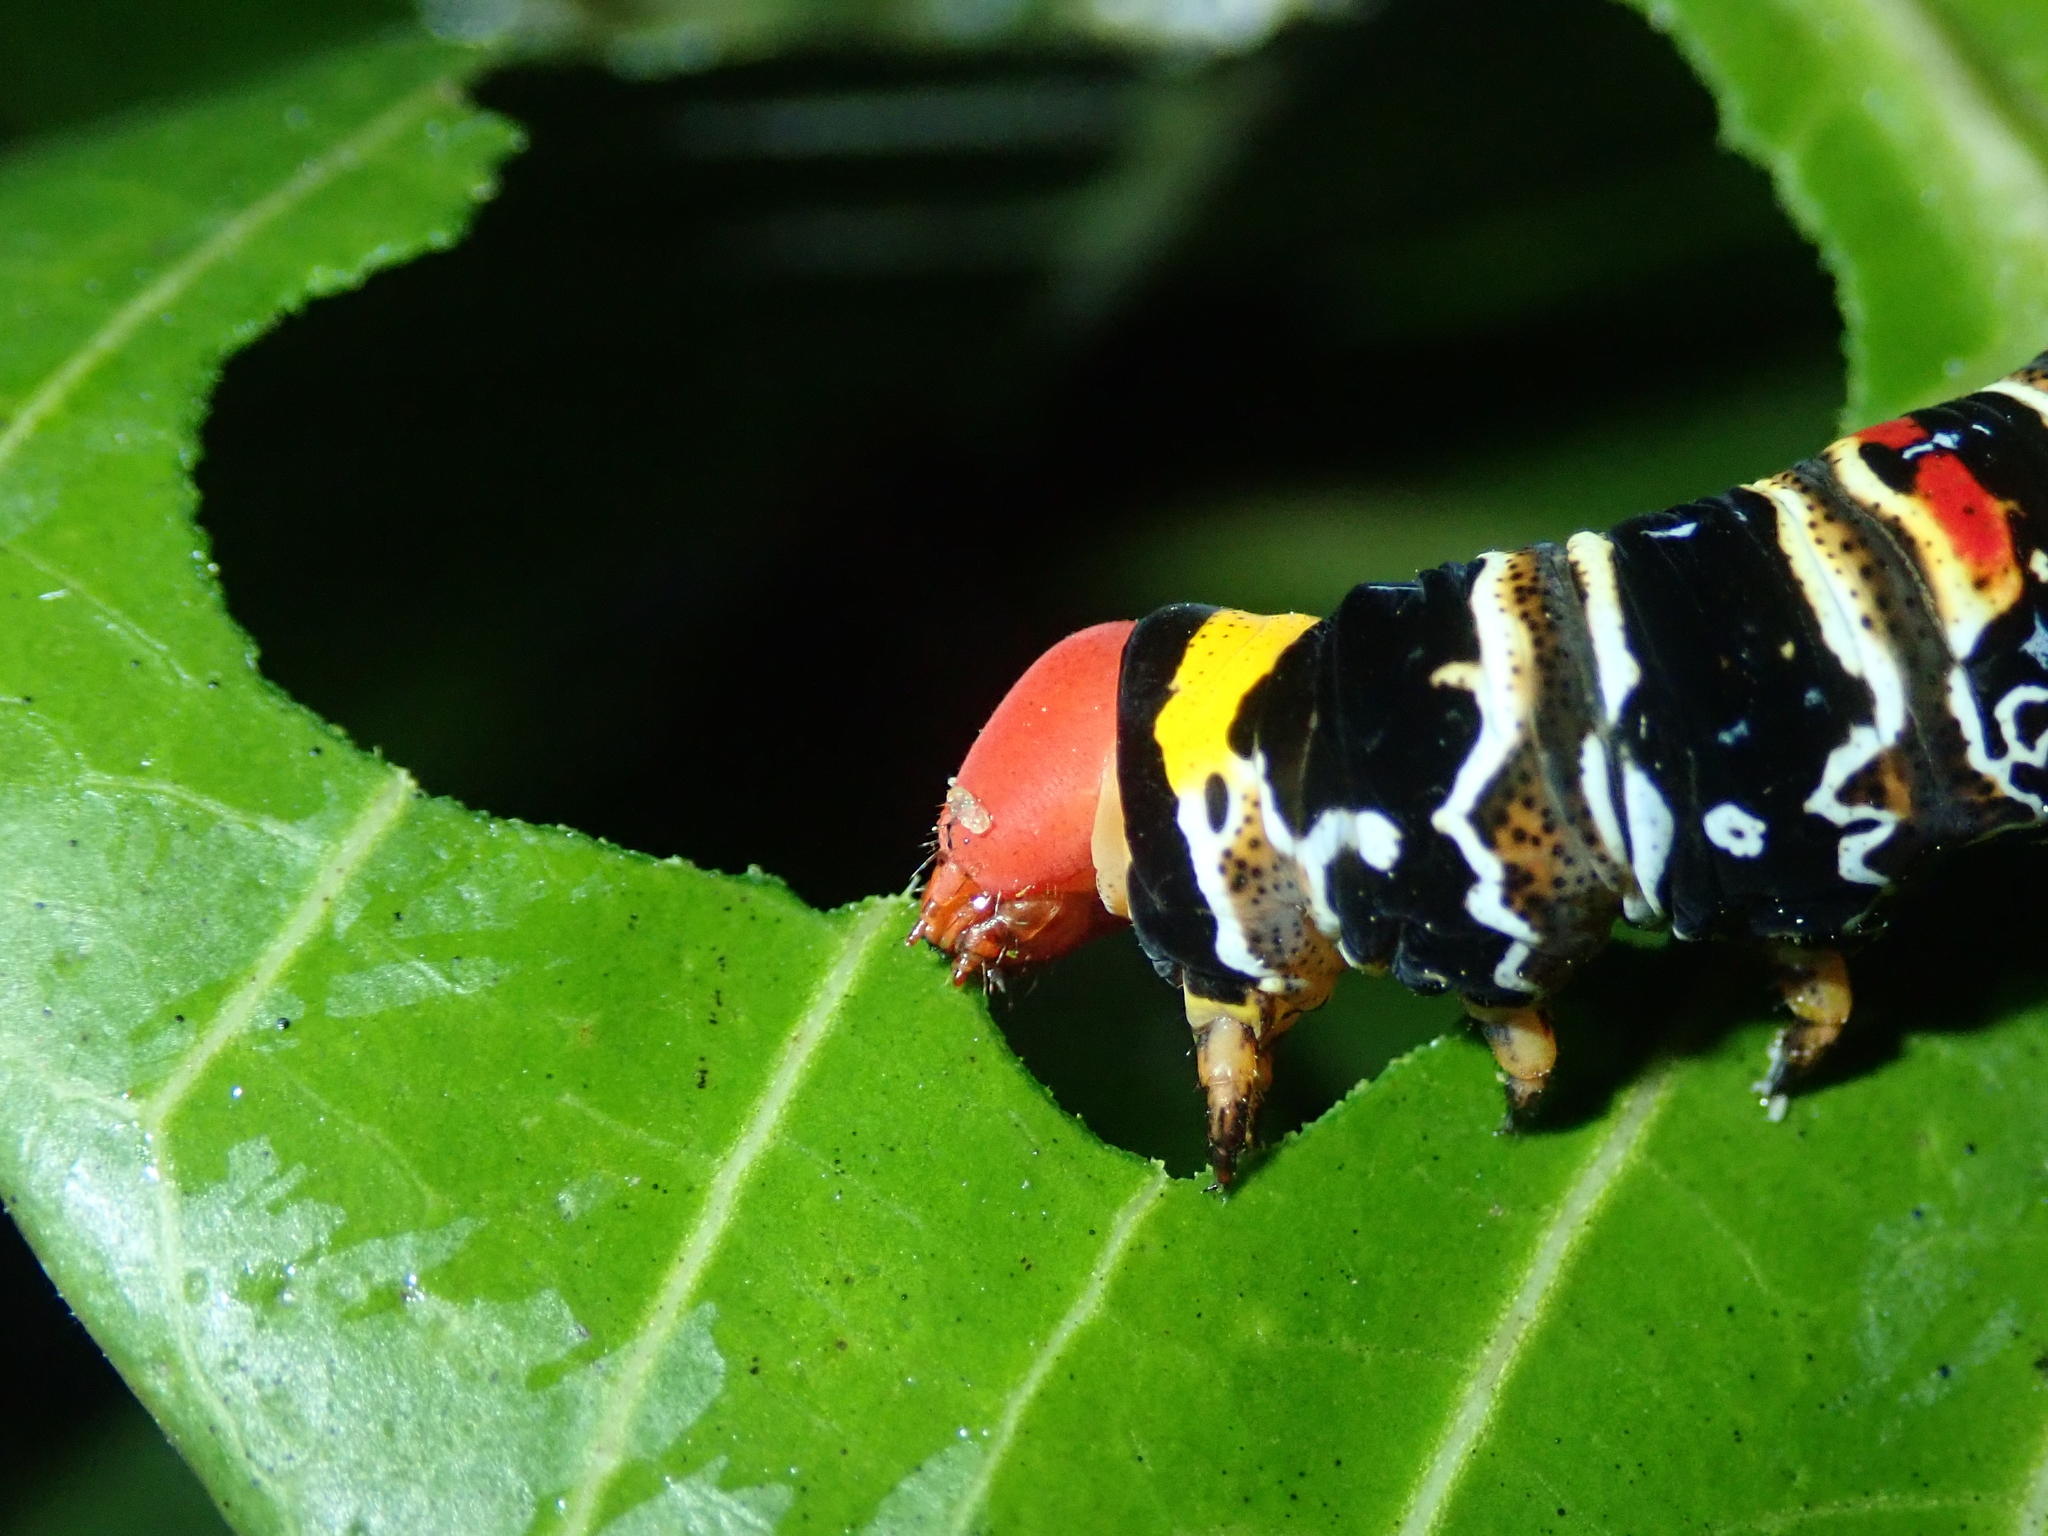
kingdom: Animalia
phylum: Arthropoda
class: Insecta
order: Lepidoptera
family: Sphingidae
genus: Isognathus
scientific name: Isognathus caricae
